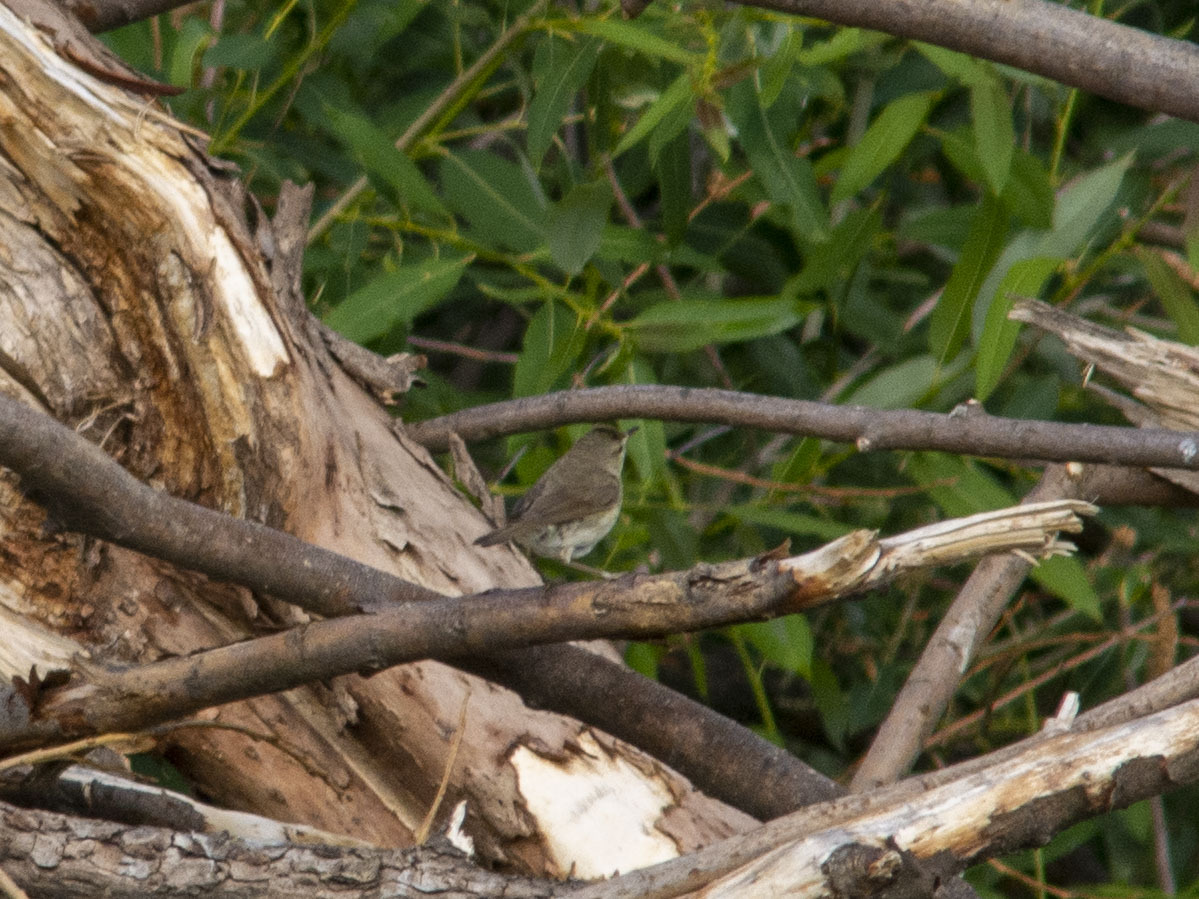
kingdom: Animalia
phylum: Chordata
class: Aves
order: Passeriformes
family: Acrocephalidae
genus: Acrocephalus
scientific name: Acrocephalus dumetorum
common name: Blyth's reed warbler
